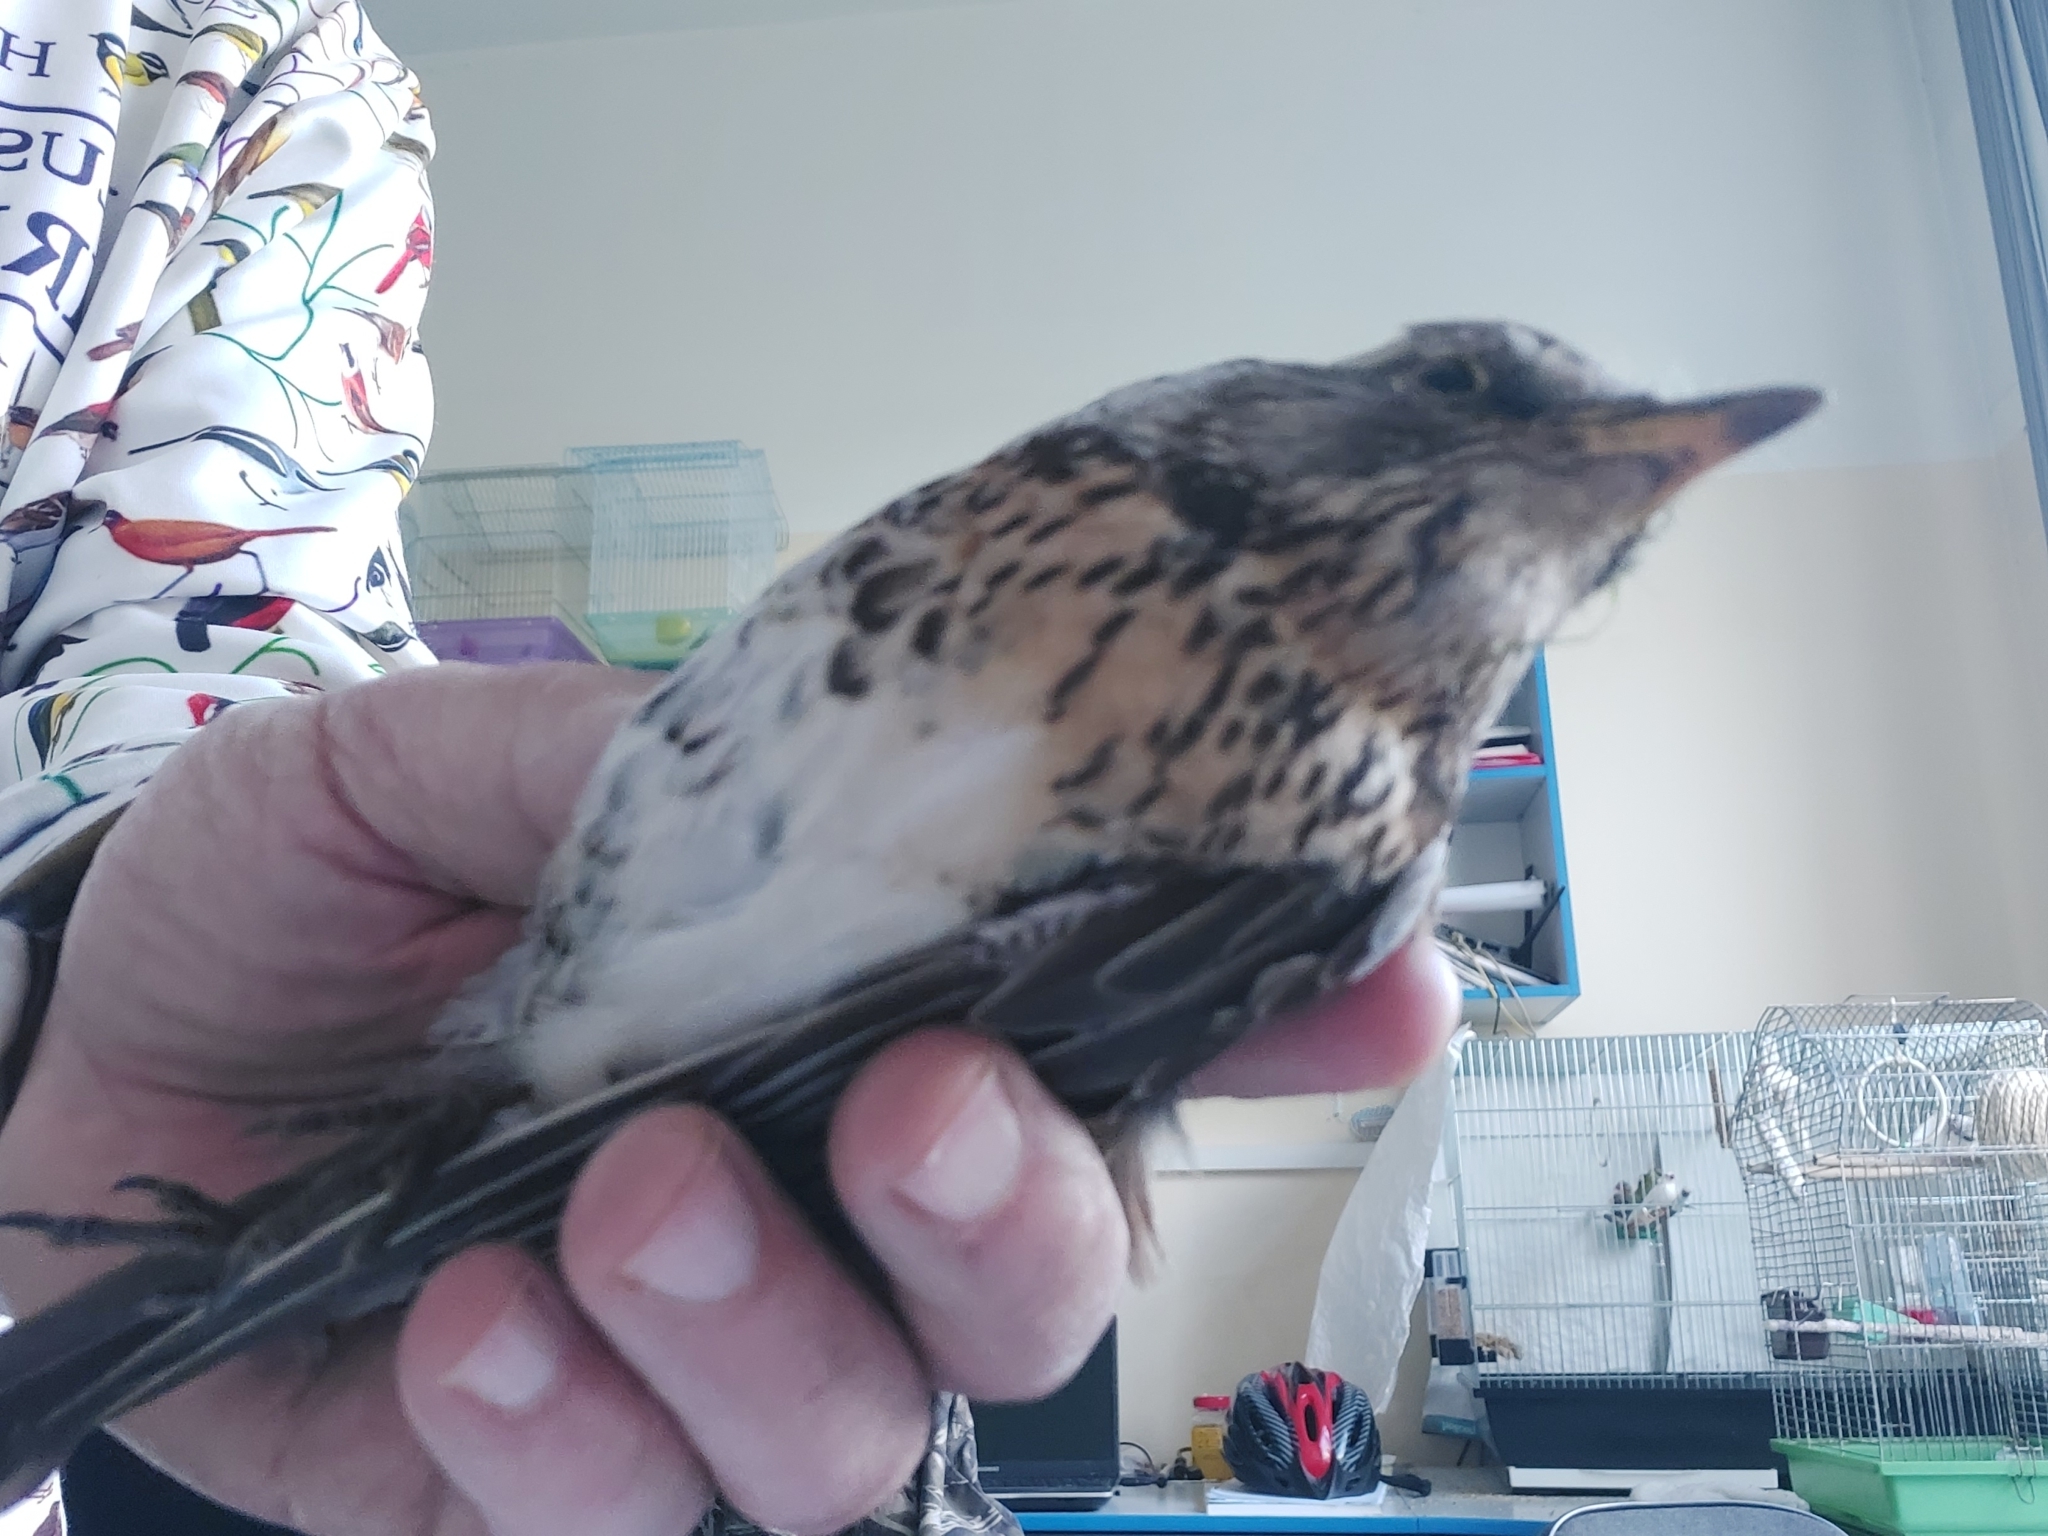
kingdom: Animalia
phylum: Chordata
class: Aves
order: Passeriformes
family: Turdidae
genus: Turdus
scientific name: Turdus pilaris
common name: Fieldfare
